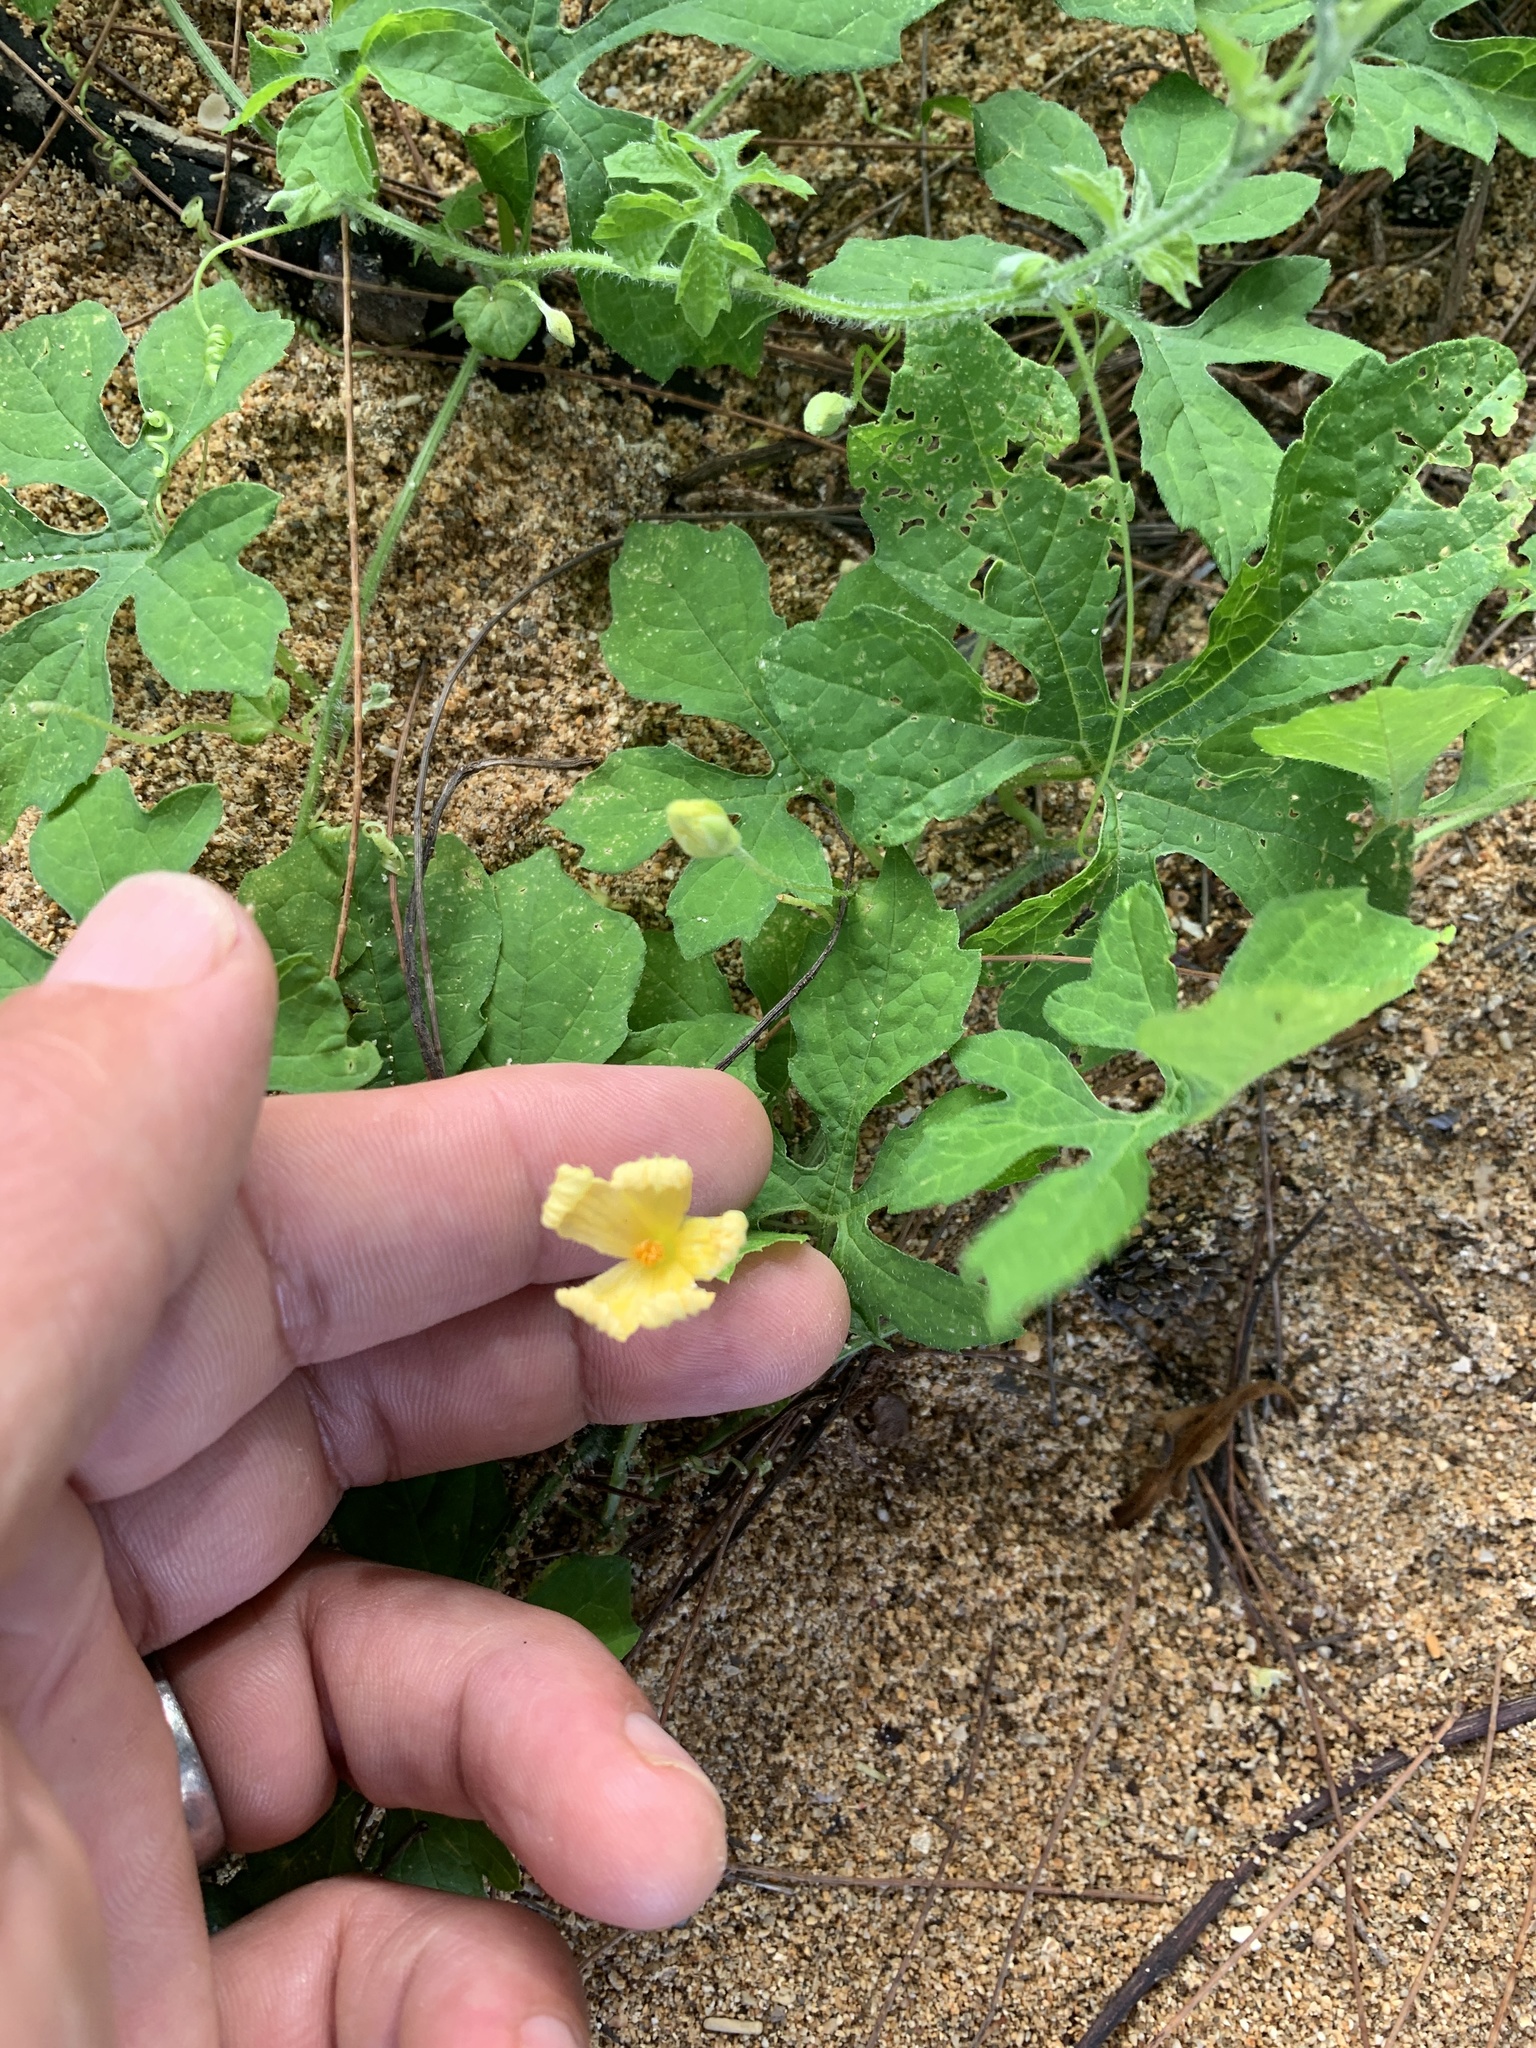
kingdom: Plantae
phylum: Tracheophyta
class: Magnoliopsida
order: Cucurbitales
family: Cucurbitaceae
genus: Momordica
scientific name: Momordica charantia
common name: Balsampear
